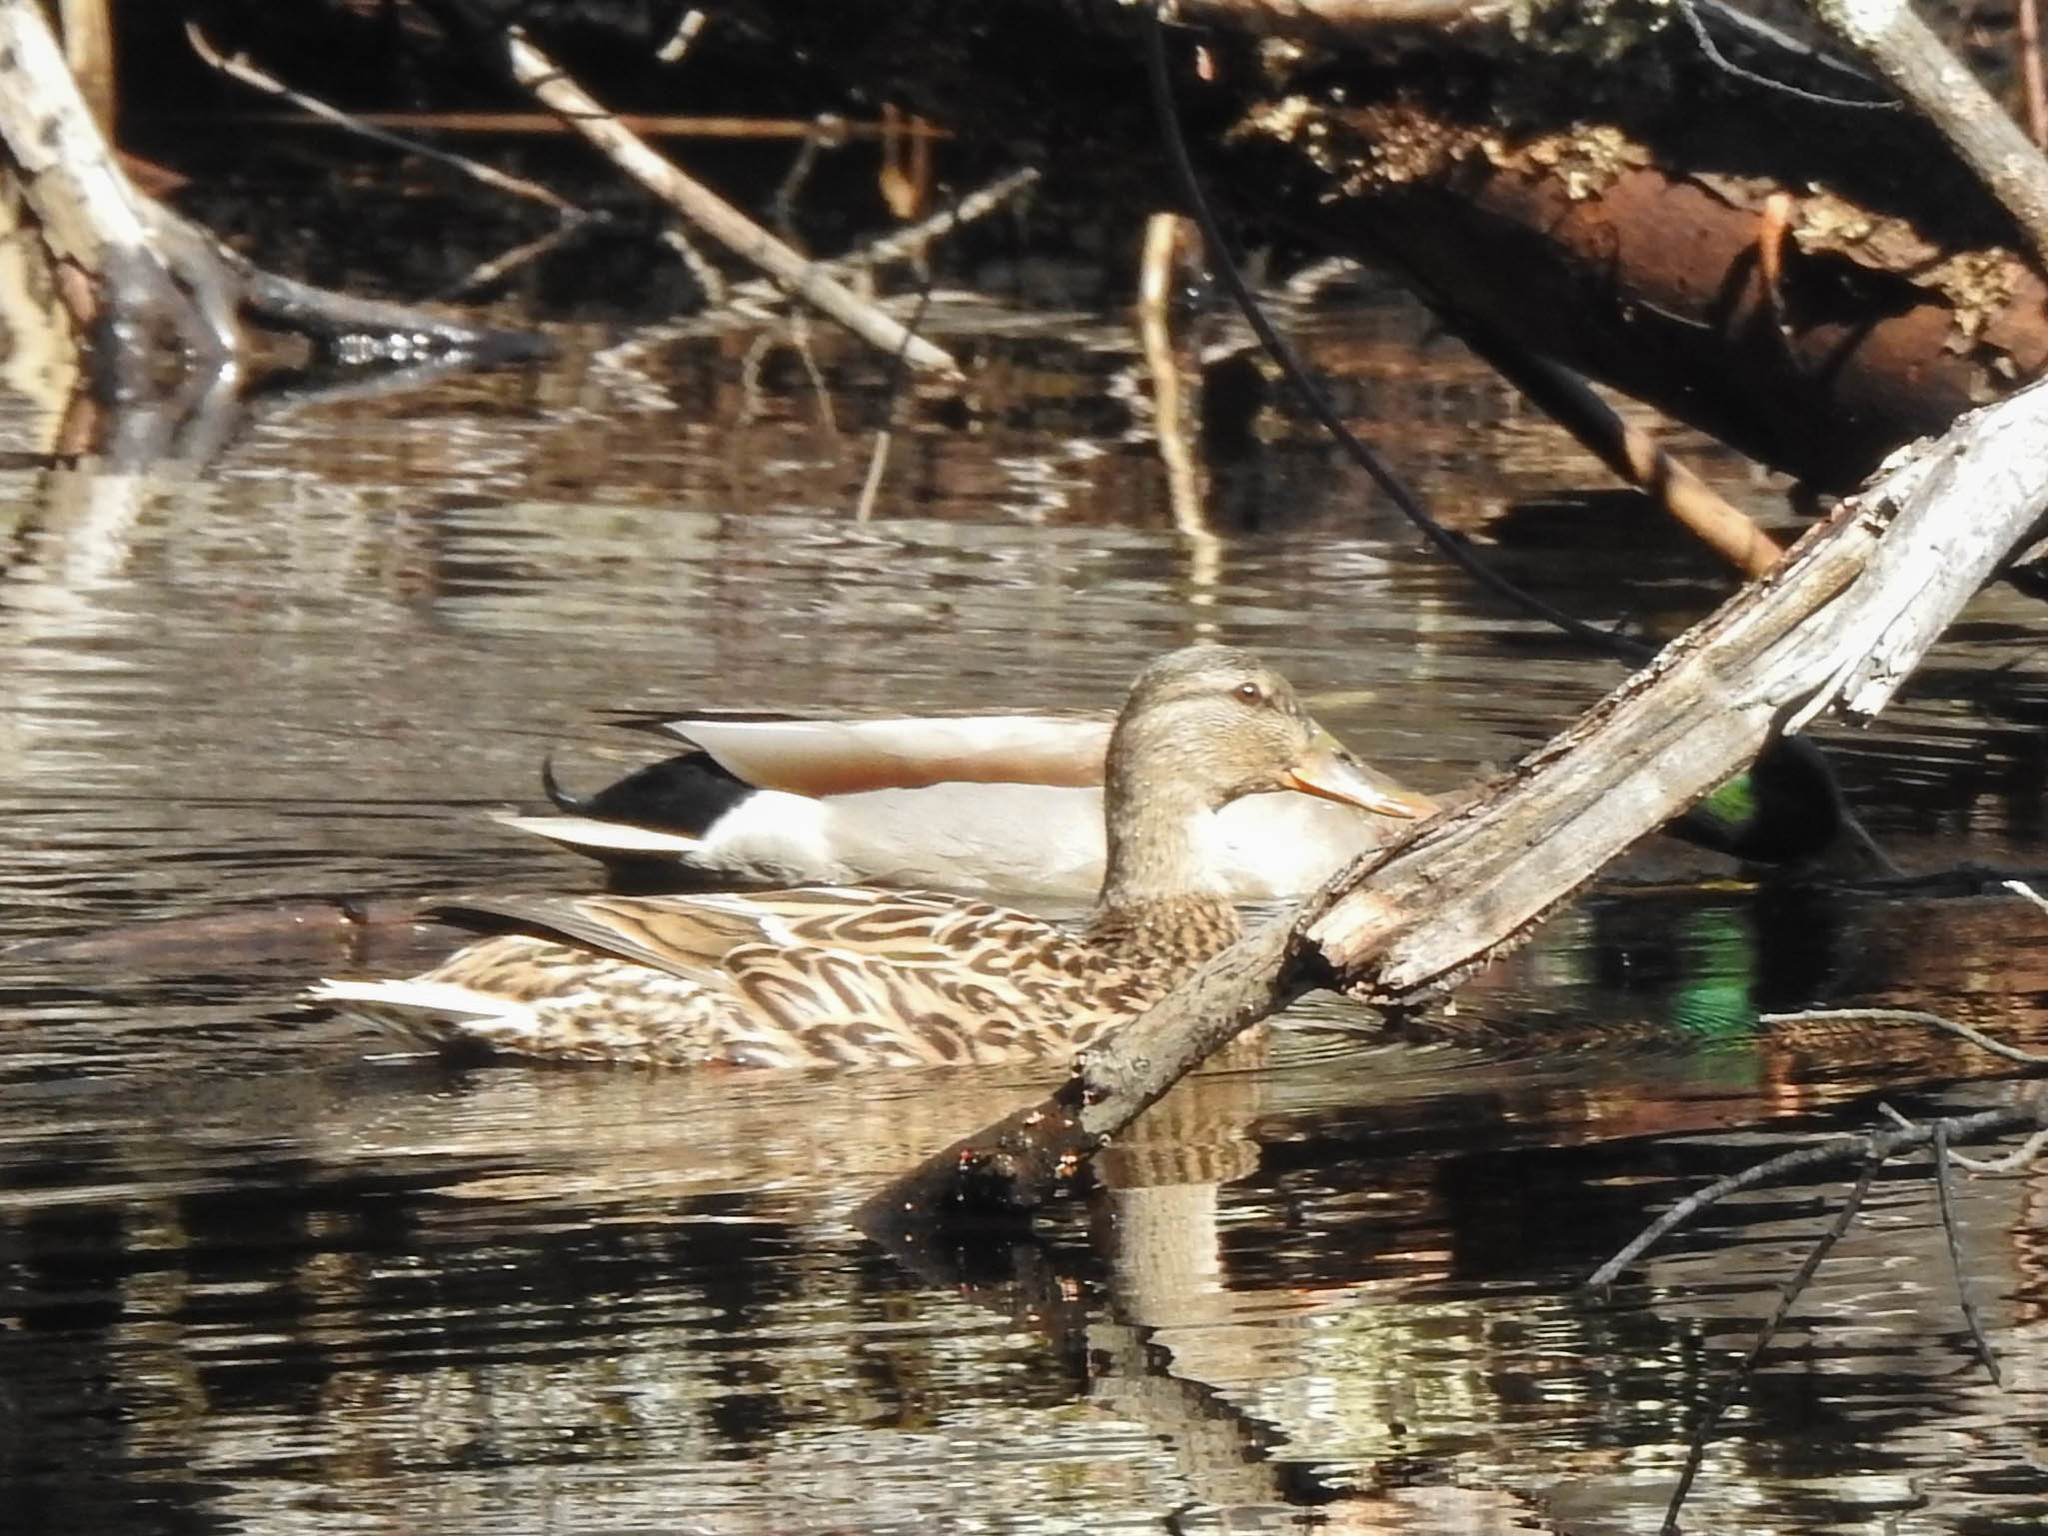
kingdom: Animalia
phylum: Chordata
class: Aves
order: Anseriformes
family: Anatidae
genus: Anas
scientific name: Anas platyrhynchos
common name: Mallard
